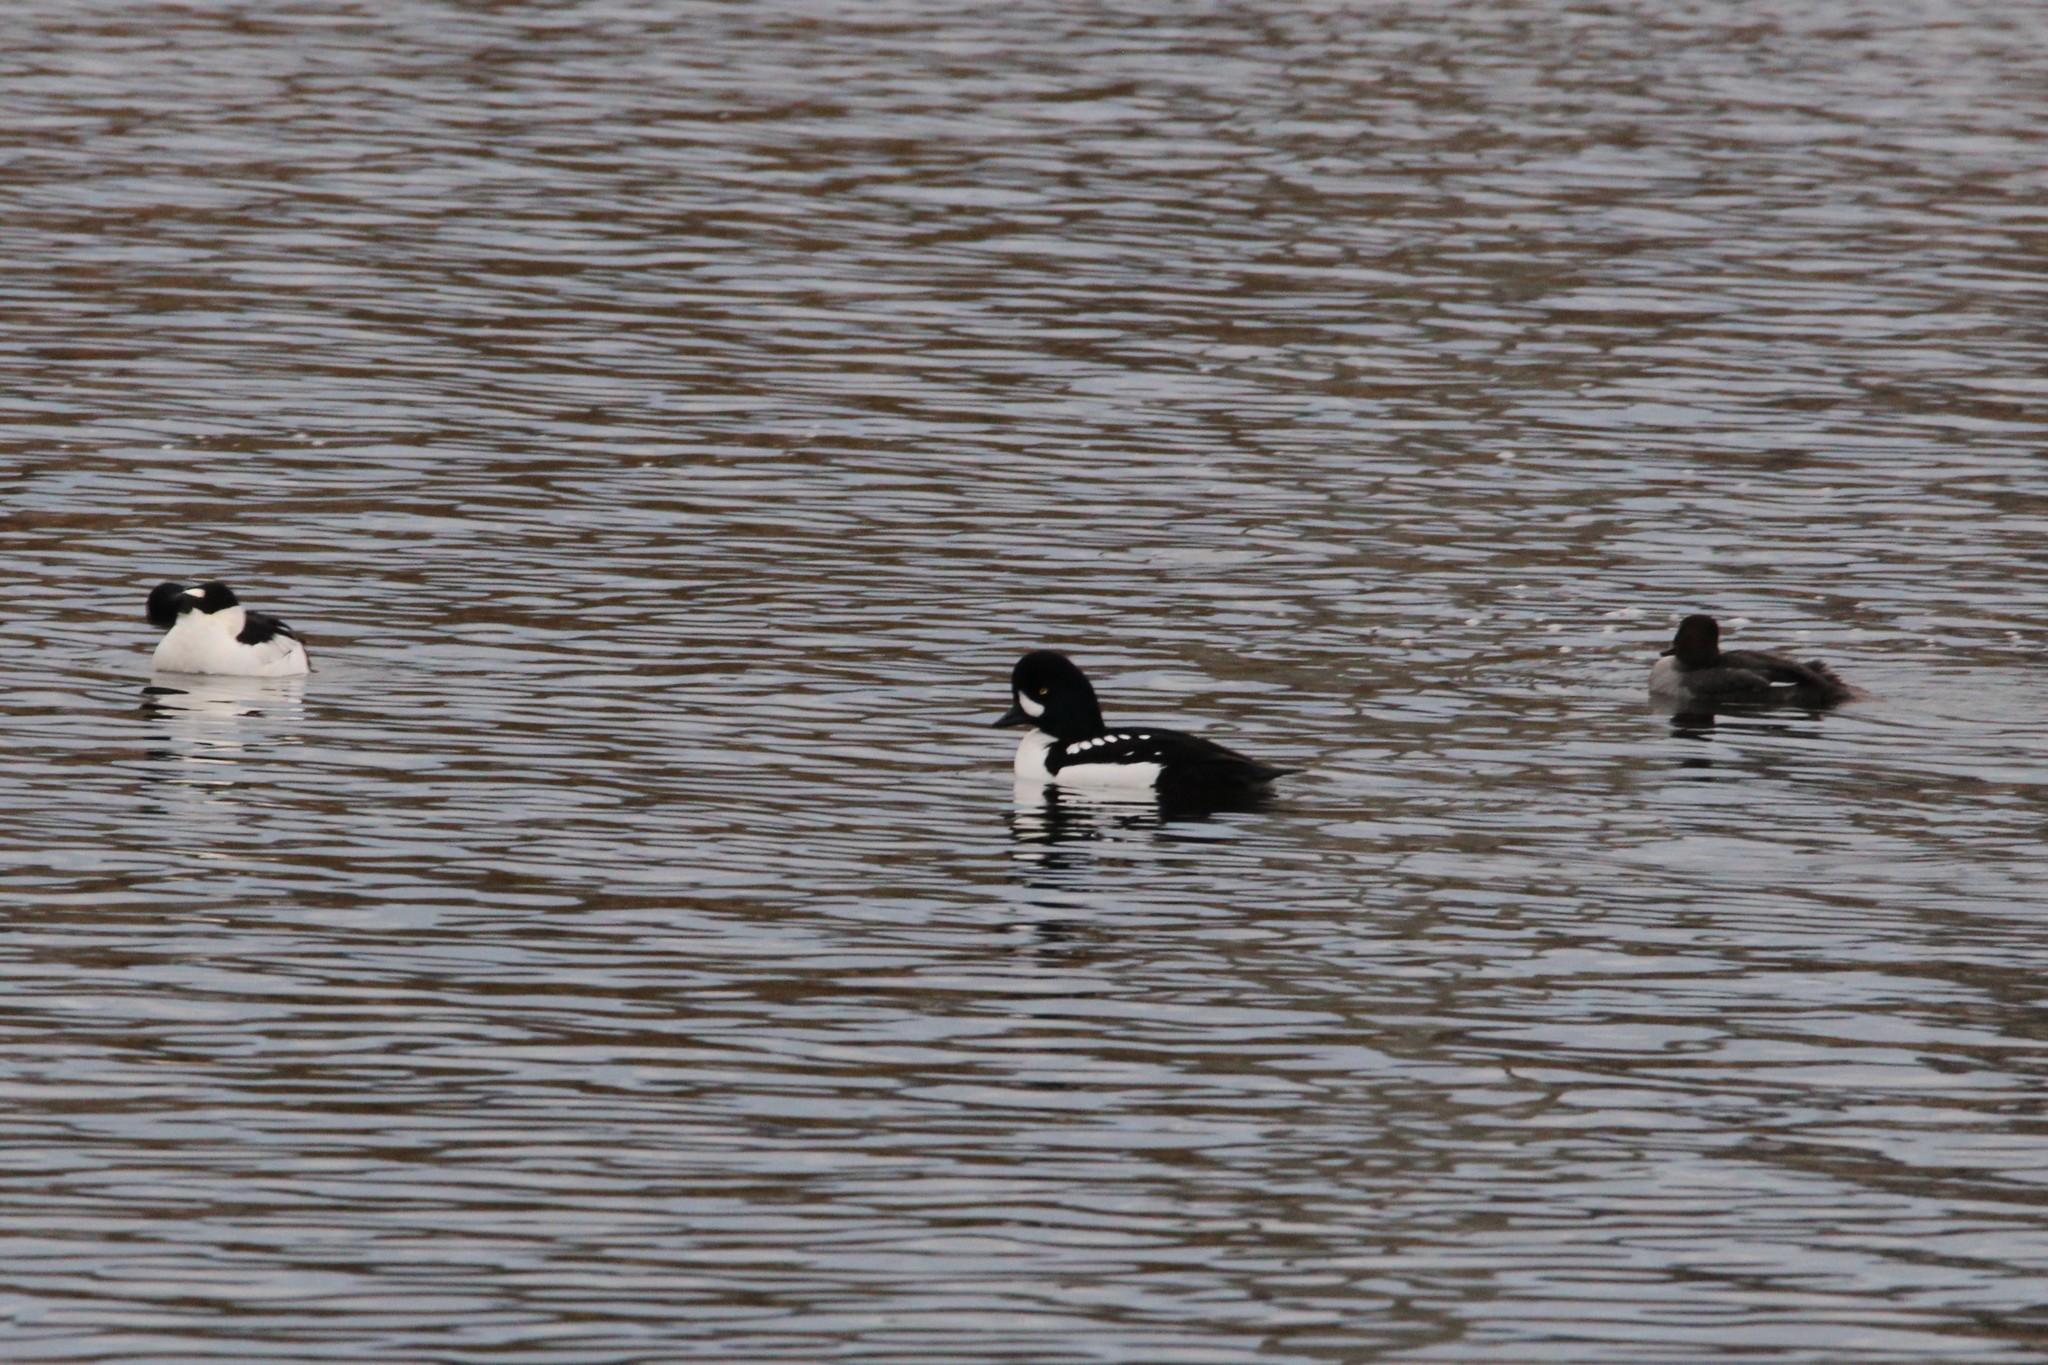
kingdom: Animalia
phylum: Chordata
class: Aves
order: Anseriformes
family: Anatidae
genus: Bucephala
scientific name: Bucephala islandica
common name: Barrow's goldeneye
